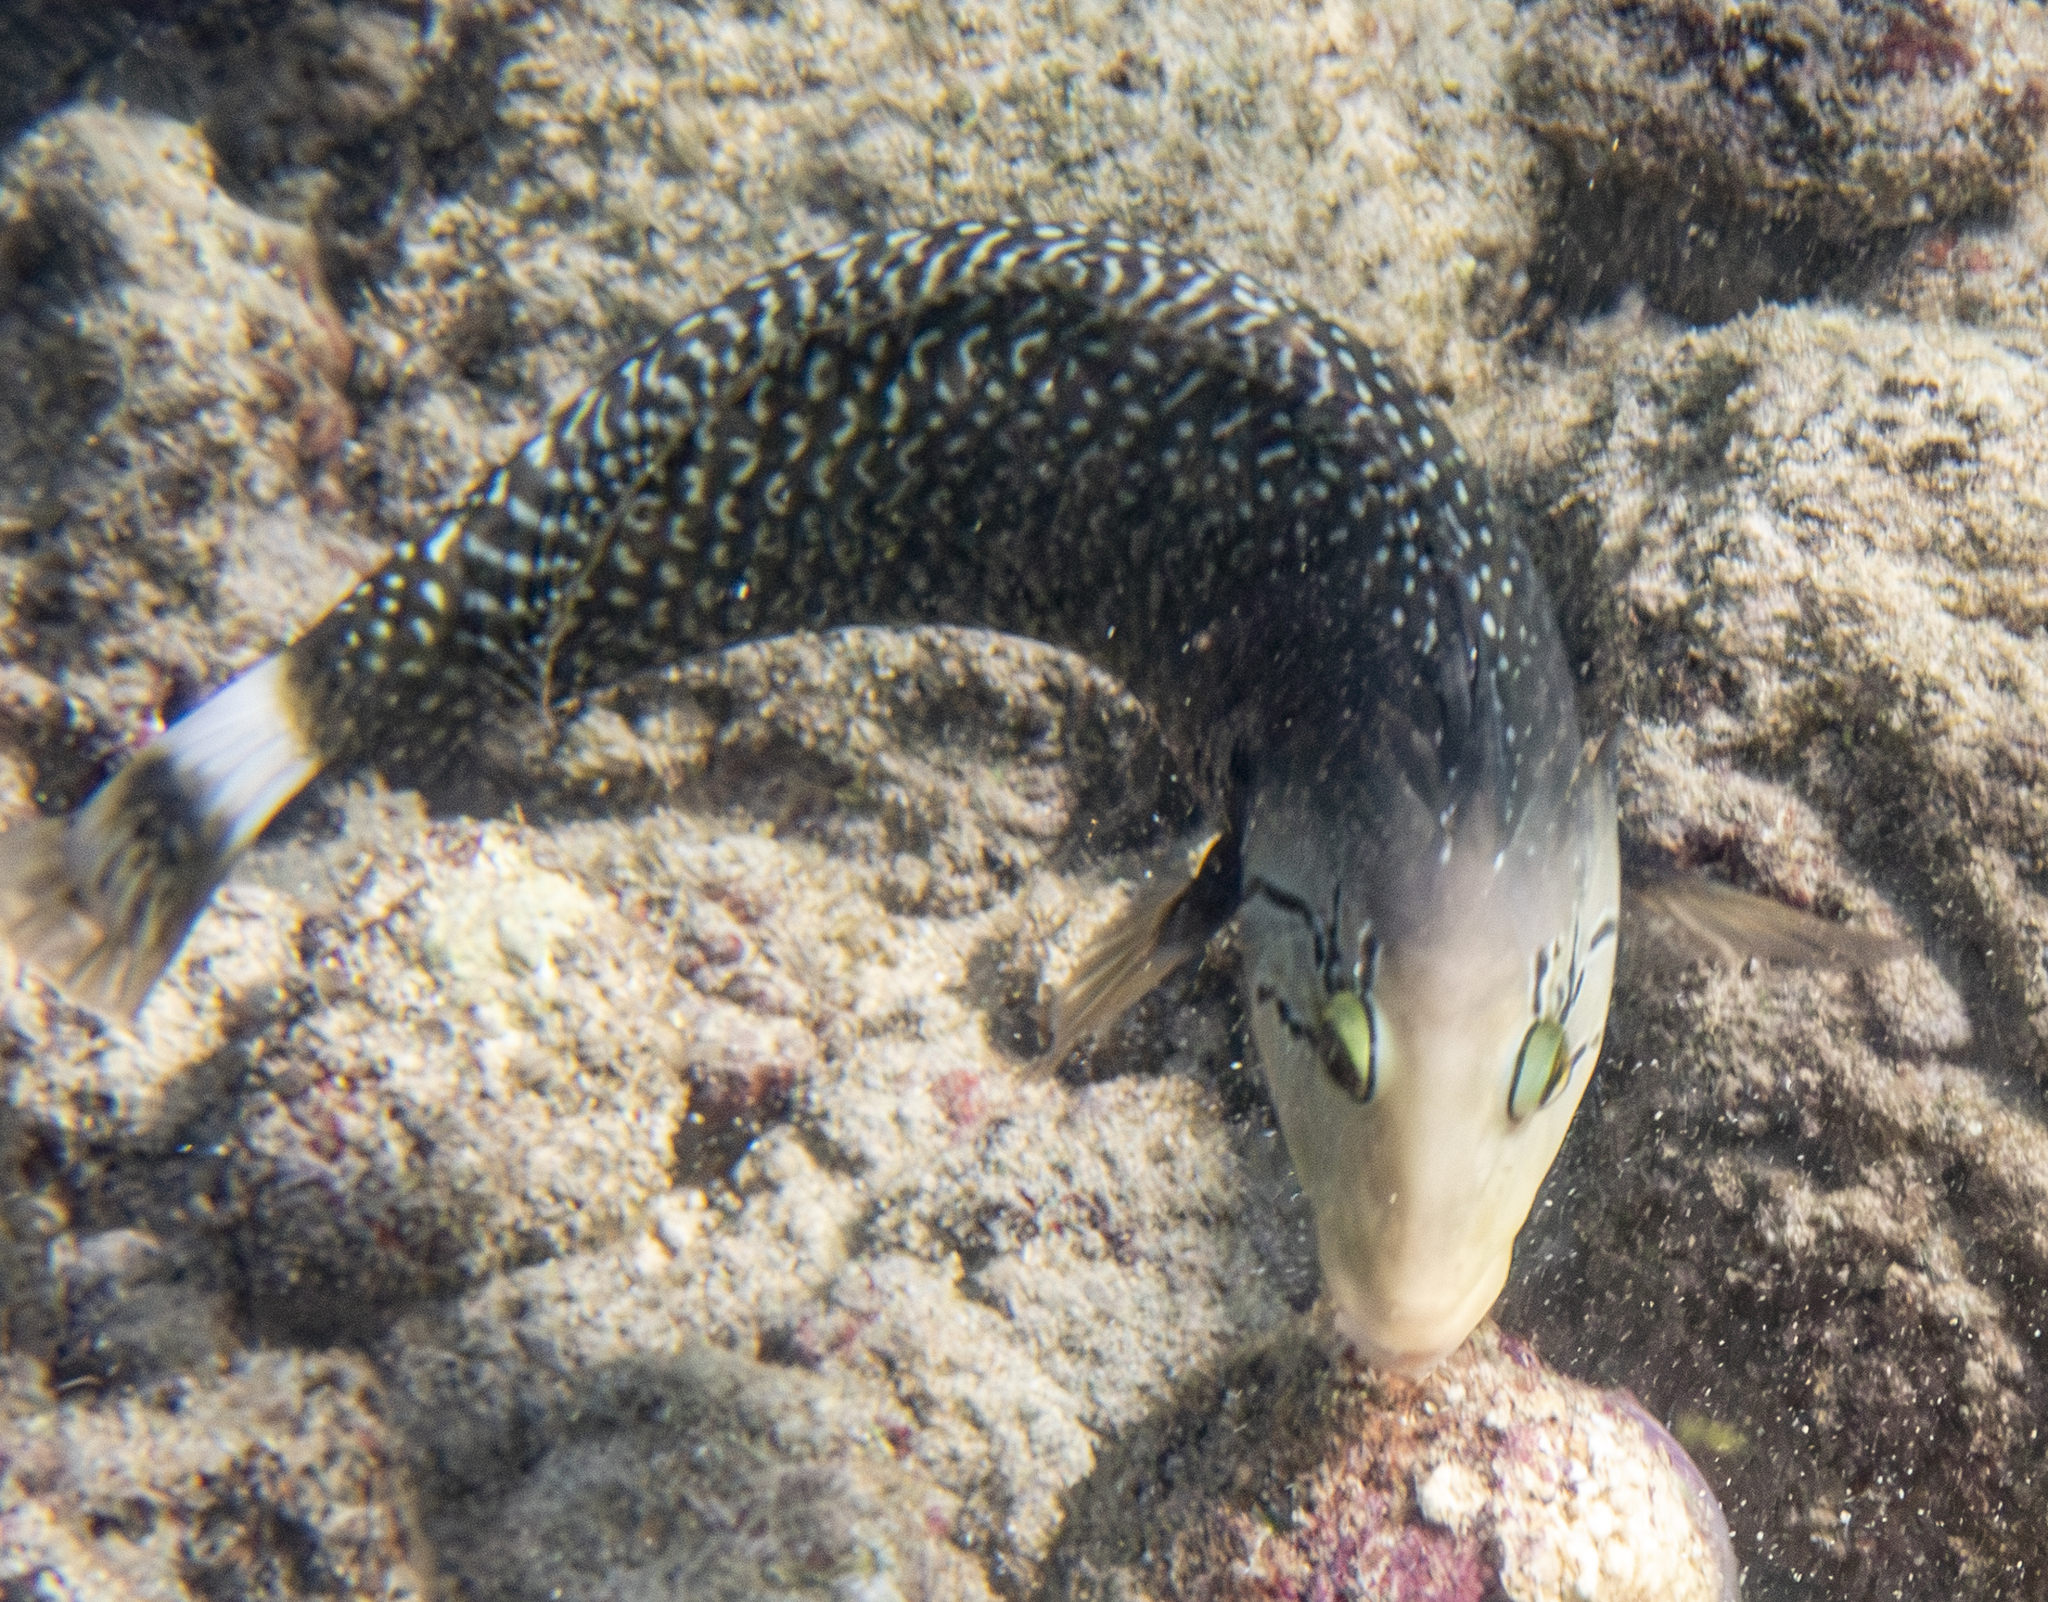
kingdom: Animalia
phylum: Chordata
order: Perciformes
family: Labridae
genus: Novaculichthys
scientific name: Novaculichthys taeniourus
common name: Rockmover wrasse
